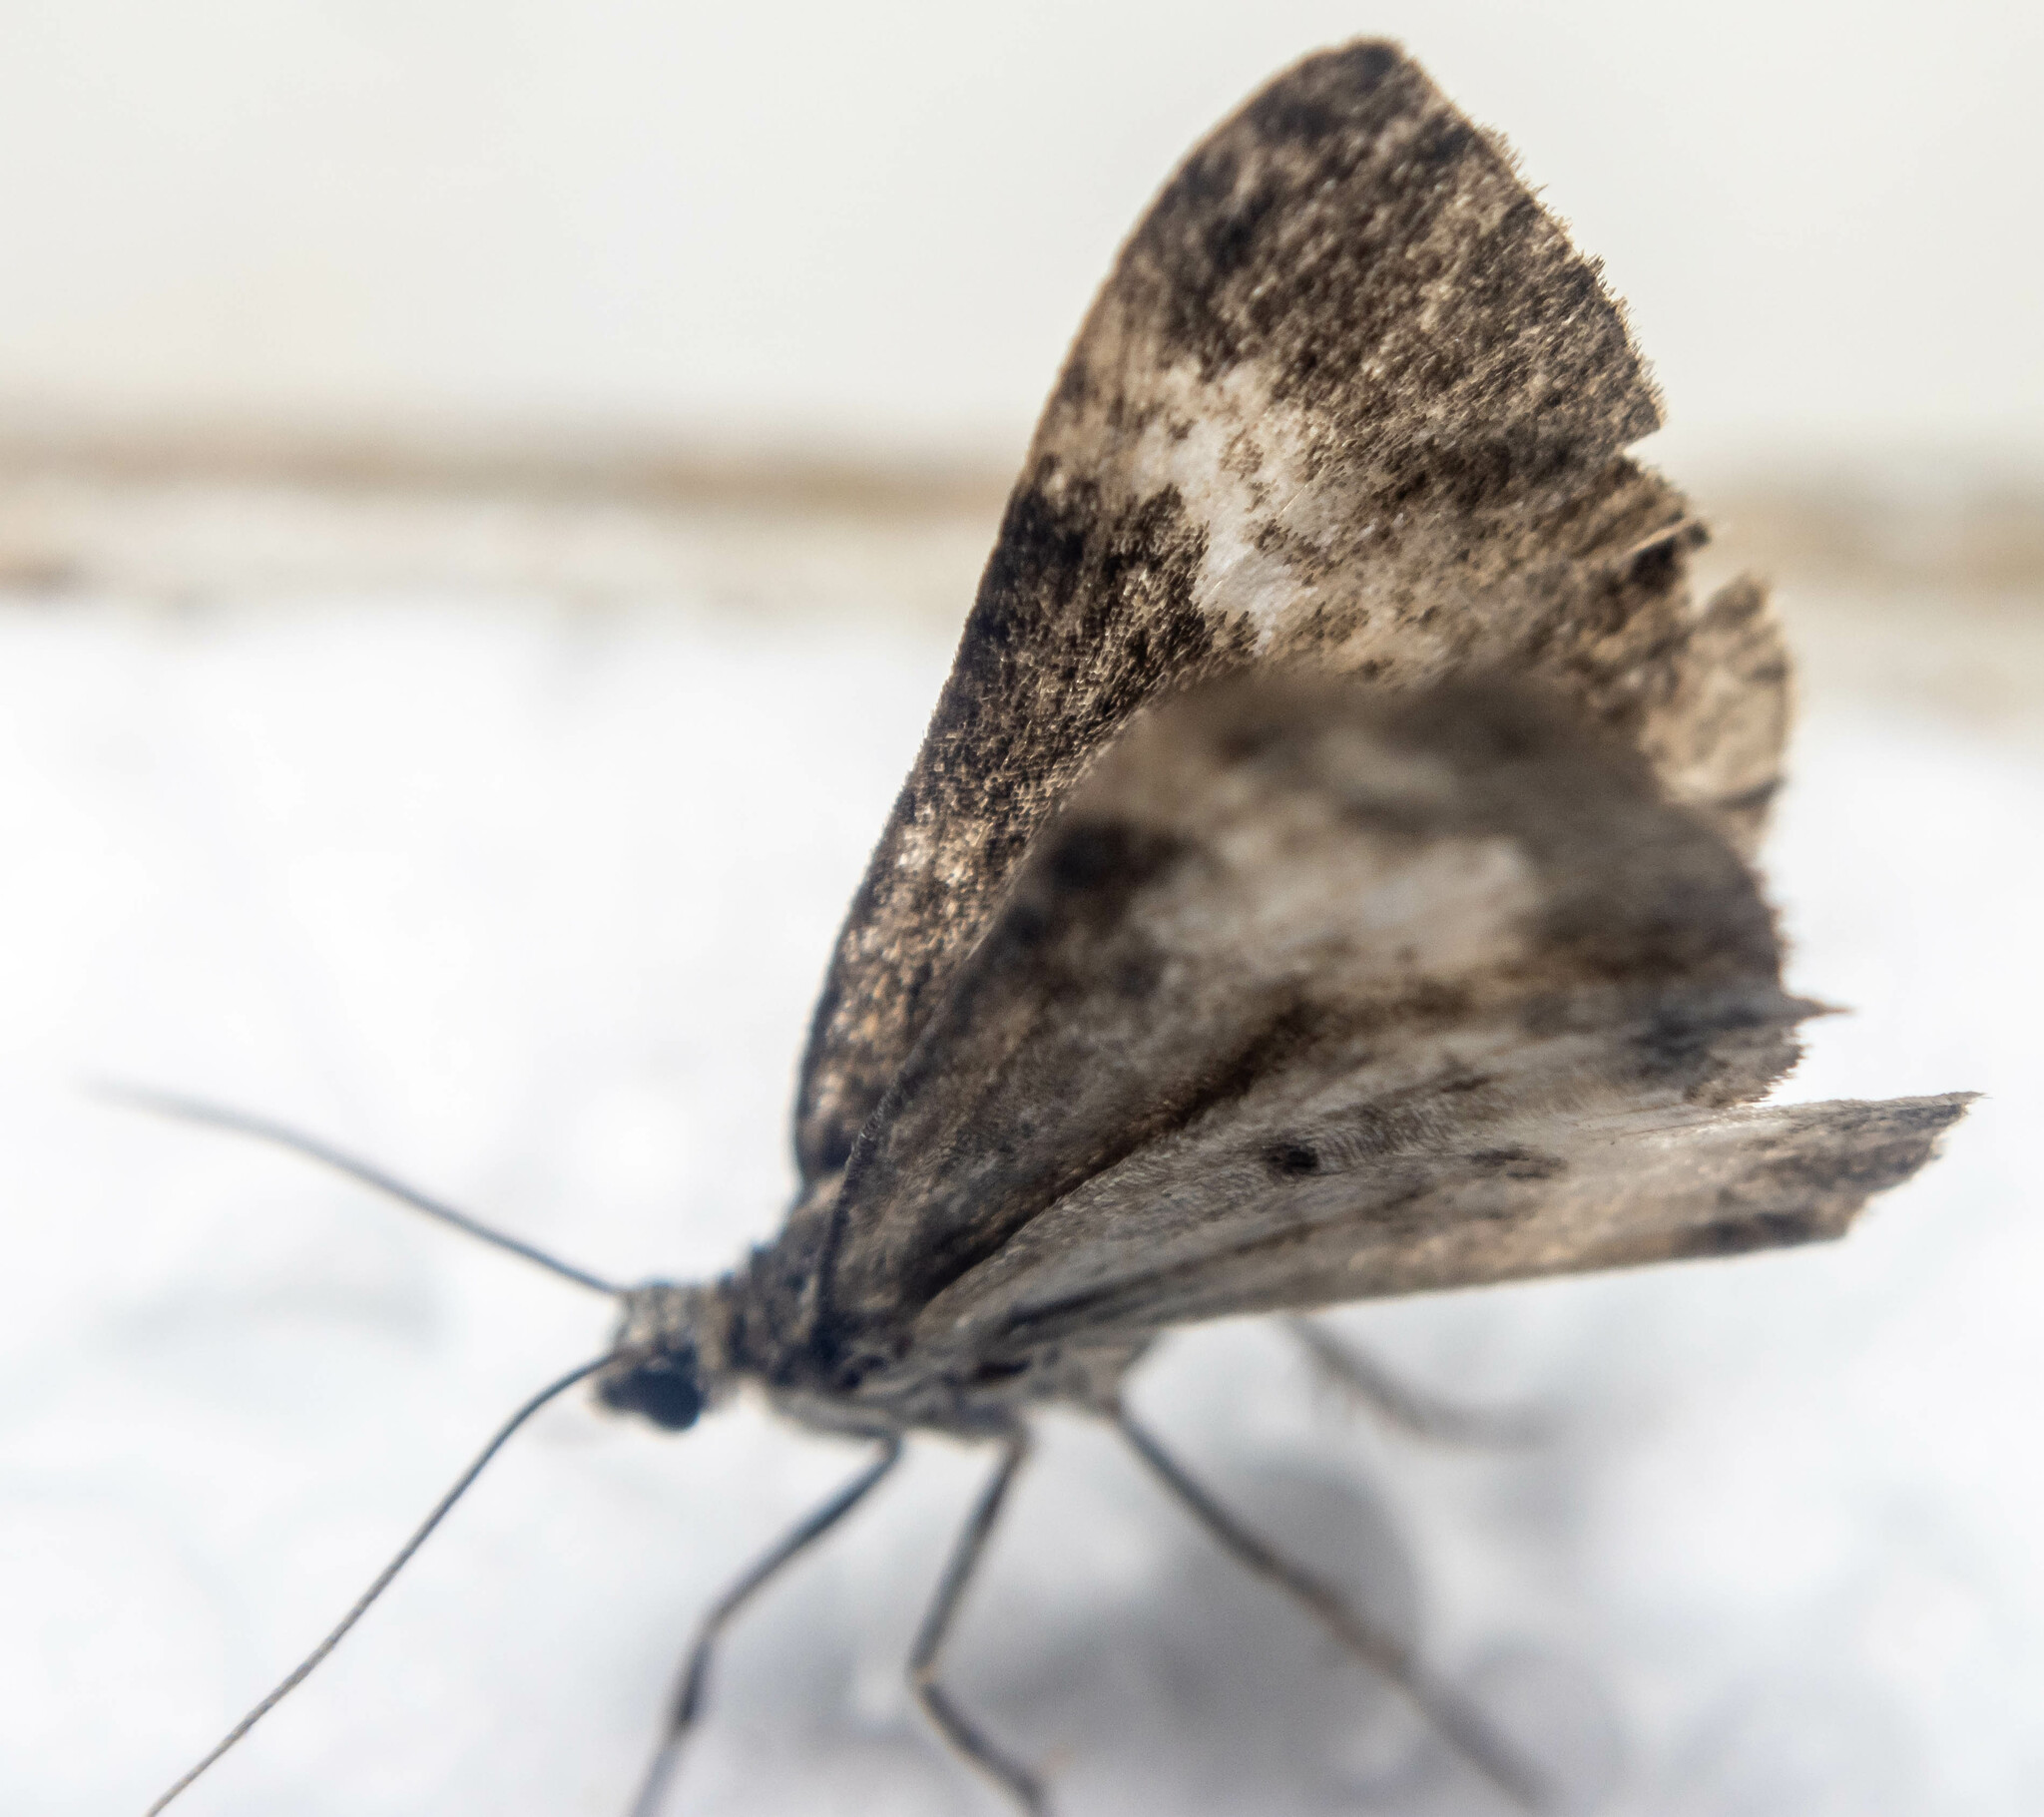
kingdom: Animalia
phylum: Arthropoda
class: Insecta
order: Lepidoptera
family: Geometridae
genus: Perizoma
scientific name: Perizoma affinitata
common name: Rivulet
